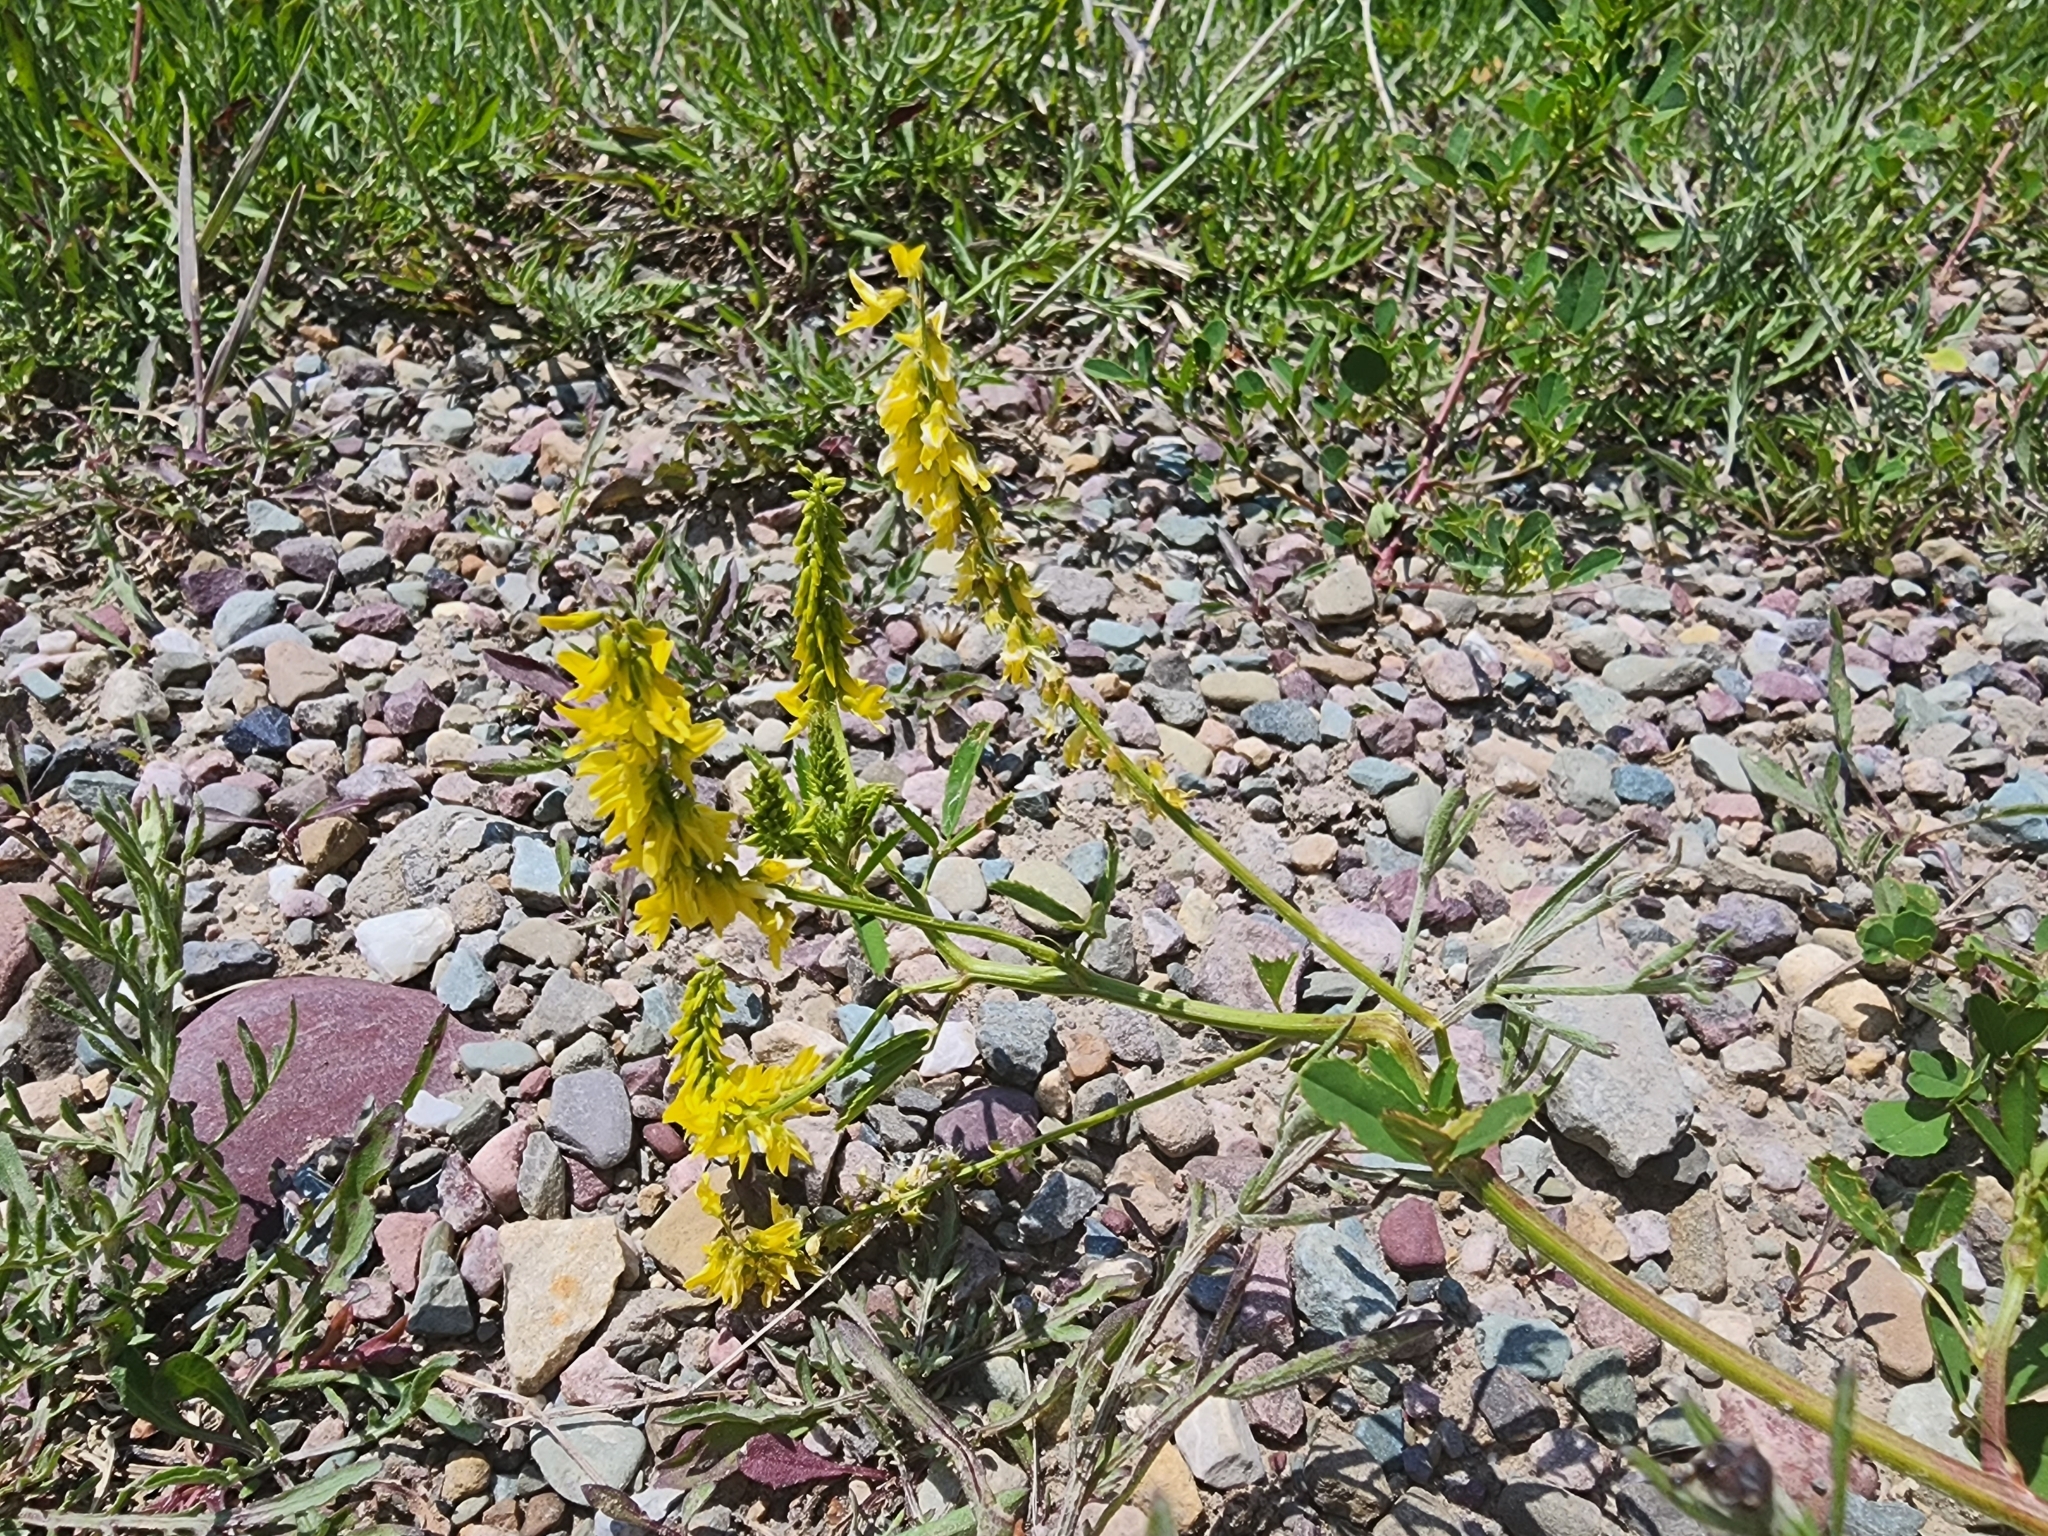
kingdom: Plantae
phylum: Tracheophyta
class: Magnoliopsida
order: Fabales
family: Fabaceae
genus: Melilotus
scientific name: Melilotus officinalis
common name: Sweetclover
